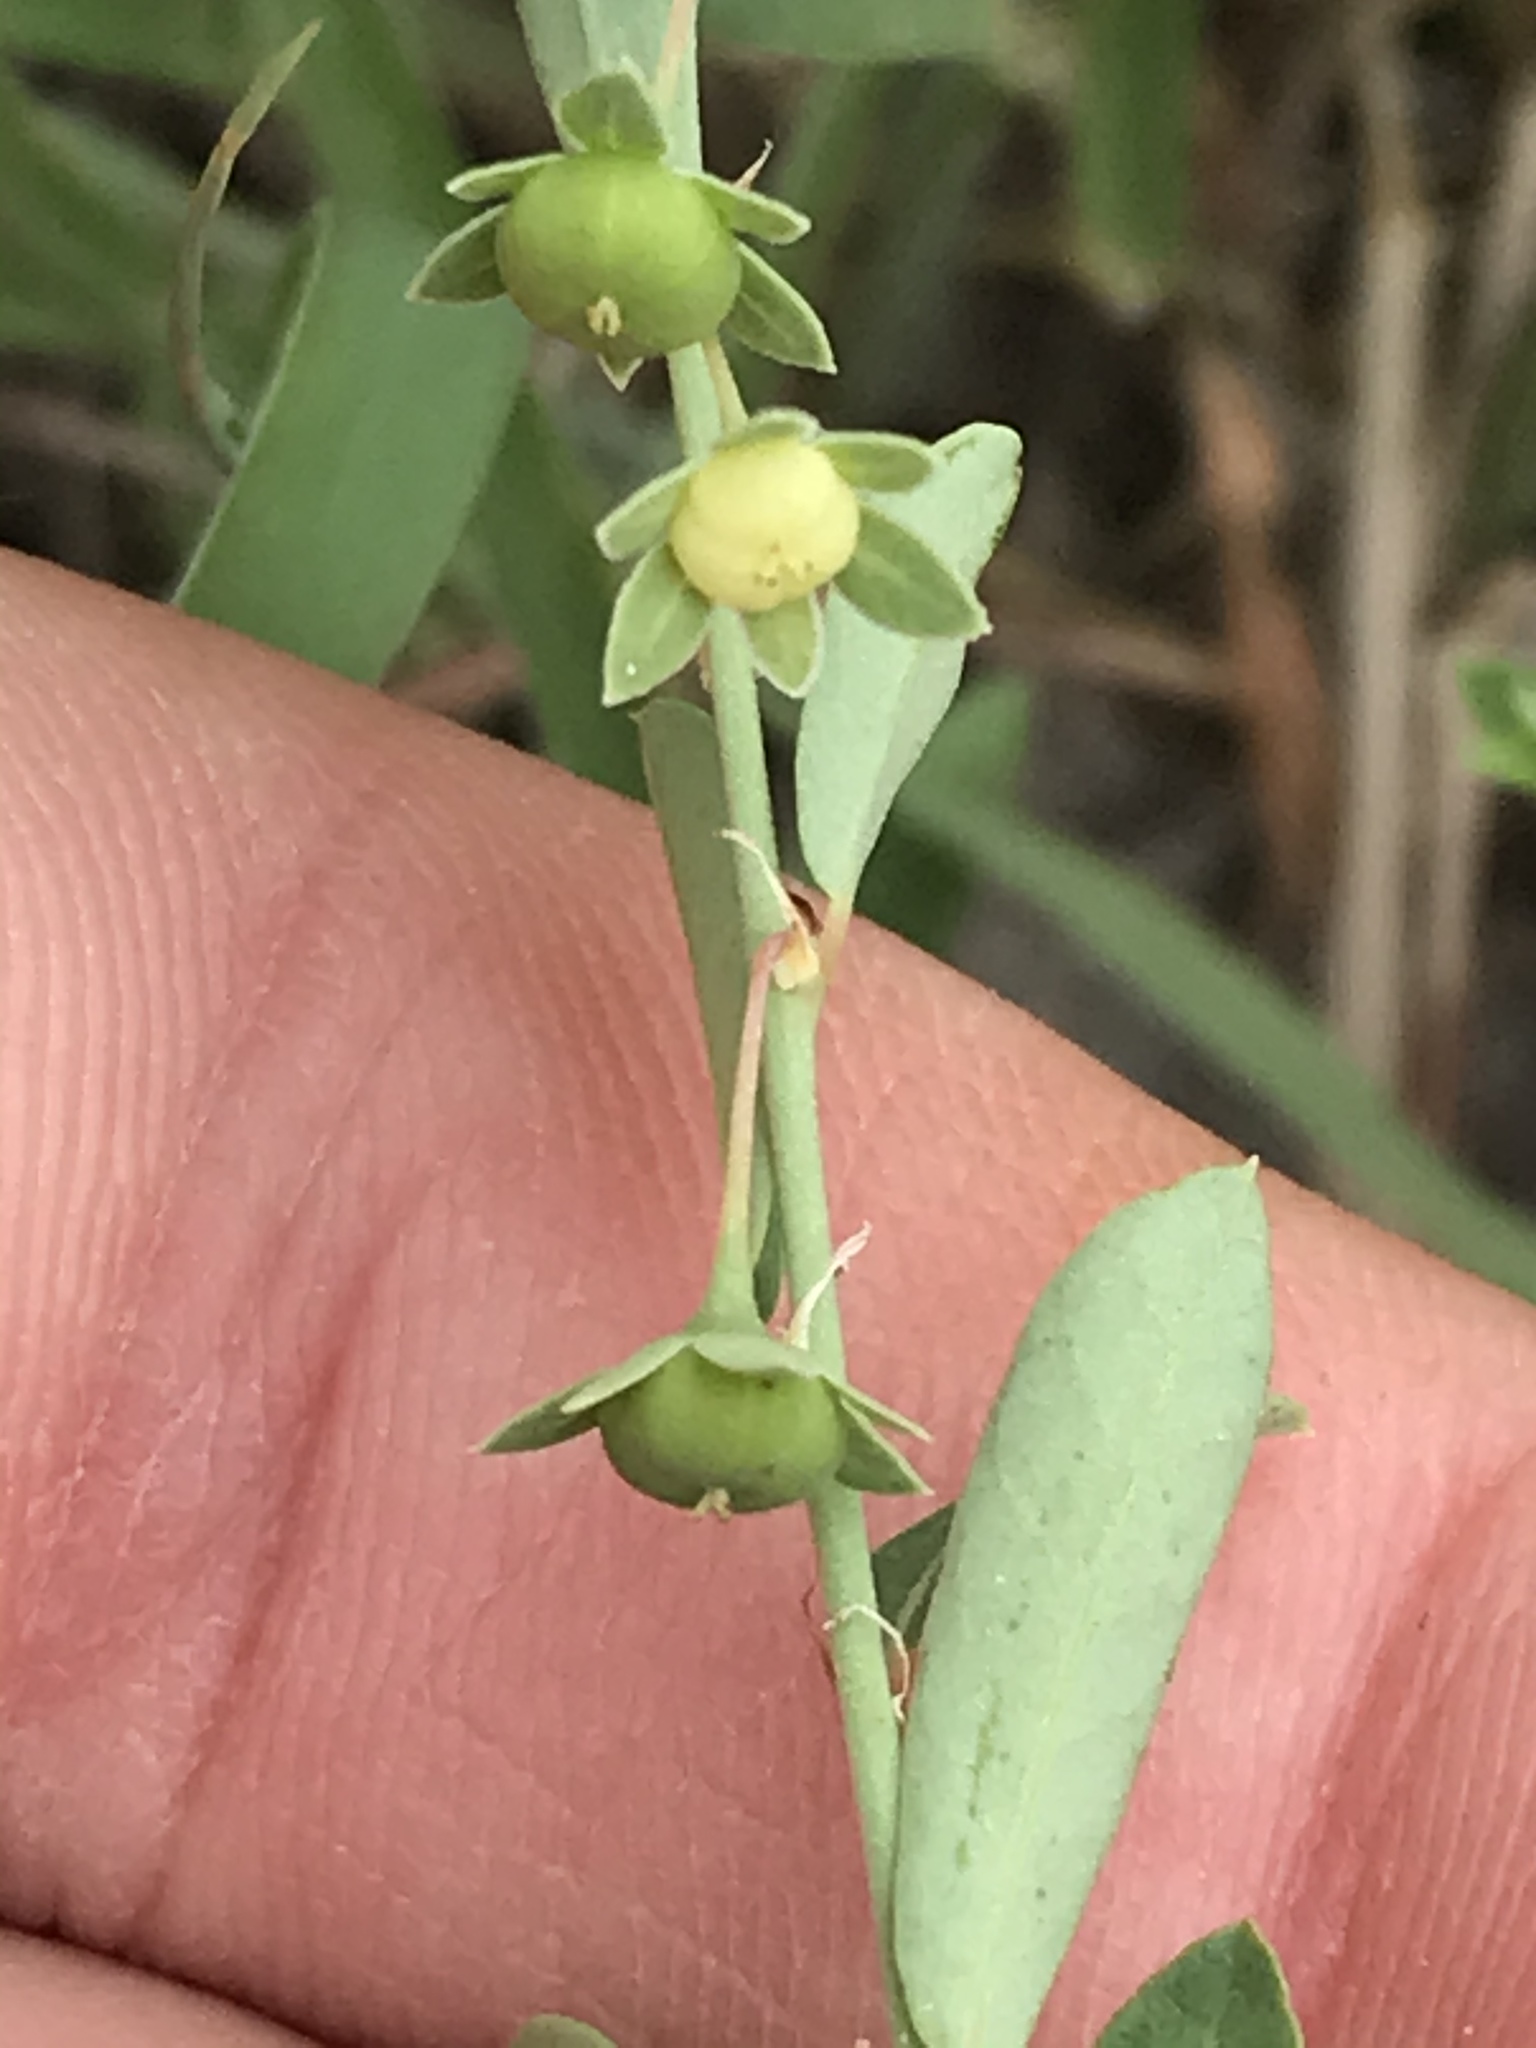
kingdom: Plantae
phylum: Tracheophyta
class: Magnoliopsida
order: Malpighiales
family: Phyllanthaceae
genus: Phyllanthus
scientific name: Phyllanthus polygonoides
